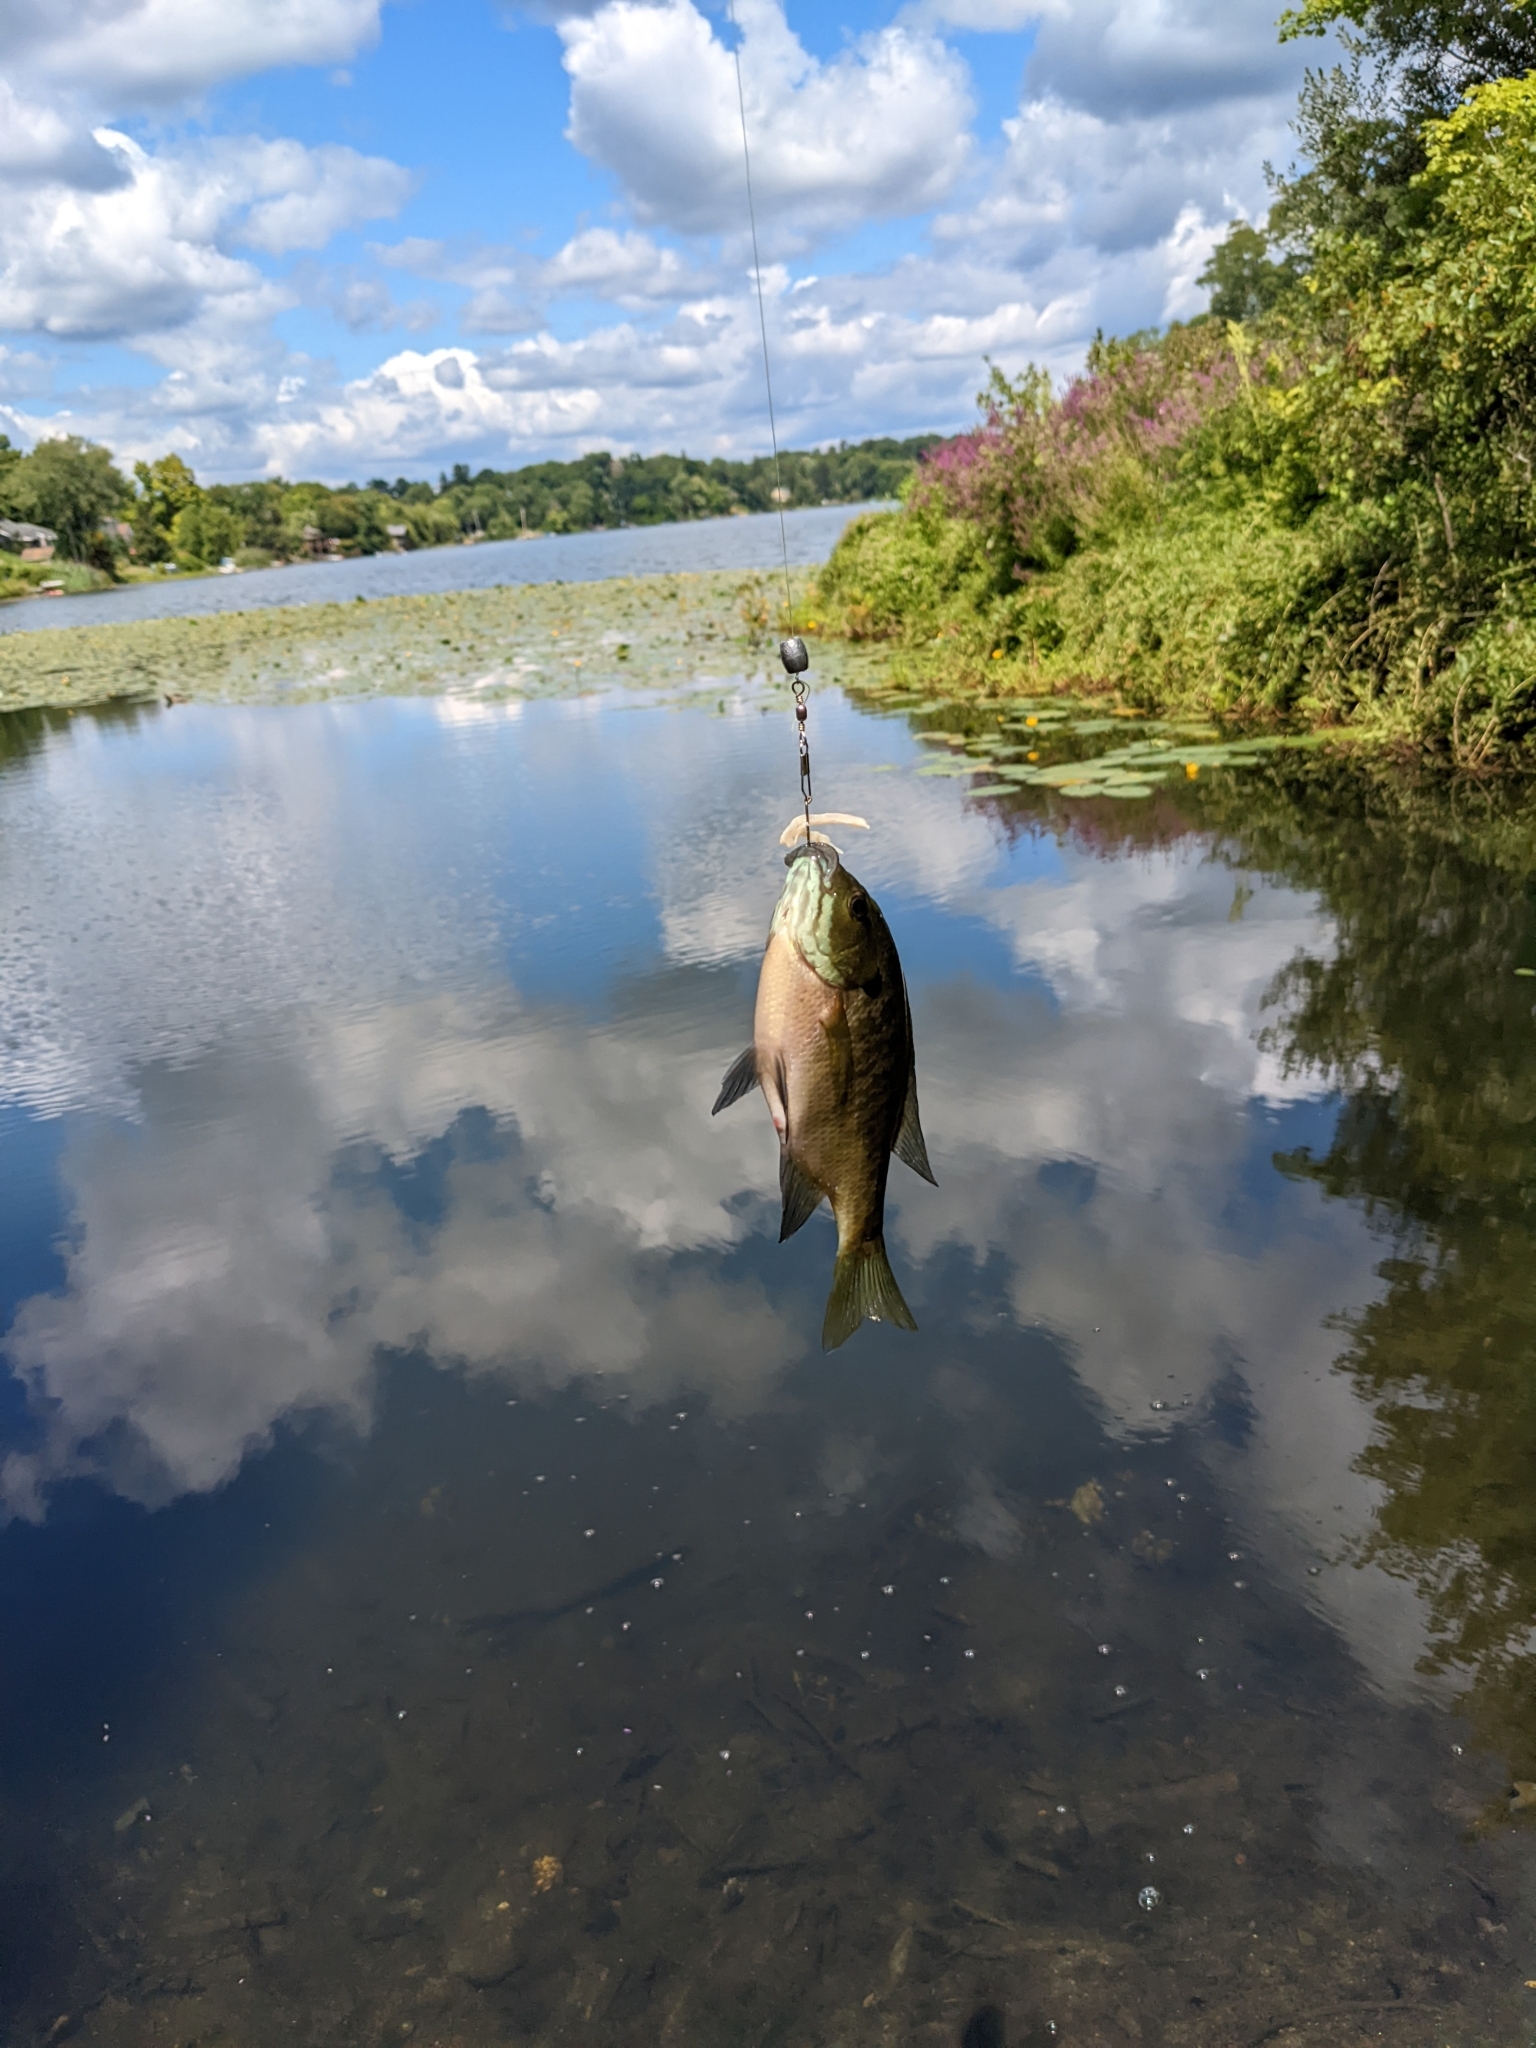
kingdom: Animalia
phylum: Chordata
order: Perciformes
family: Centrarchidae
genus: Lepomis
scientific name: Lepomis macrochirus
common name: Bluegill
